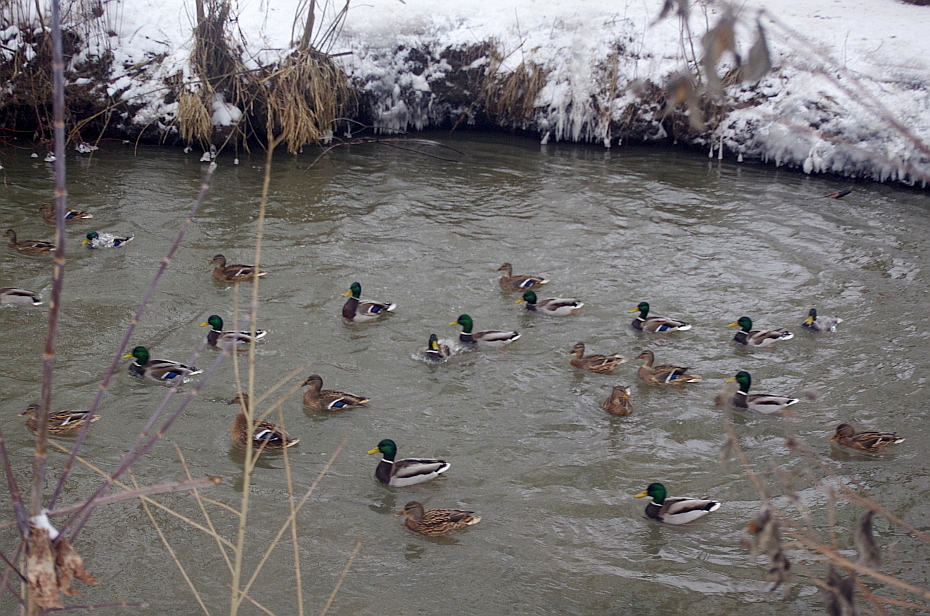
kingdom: Animalia
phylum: Chordata
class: Aves
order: Anseriformes
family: Anatidae
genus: Anas
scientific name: Anas platyrhynchos
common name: Mallard
